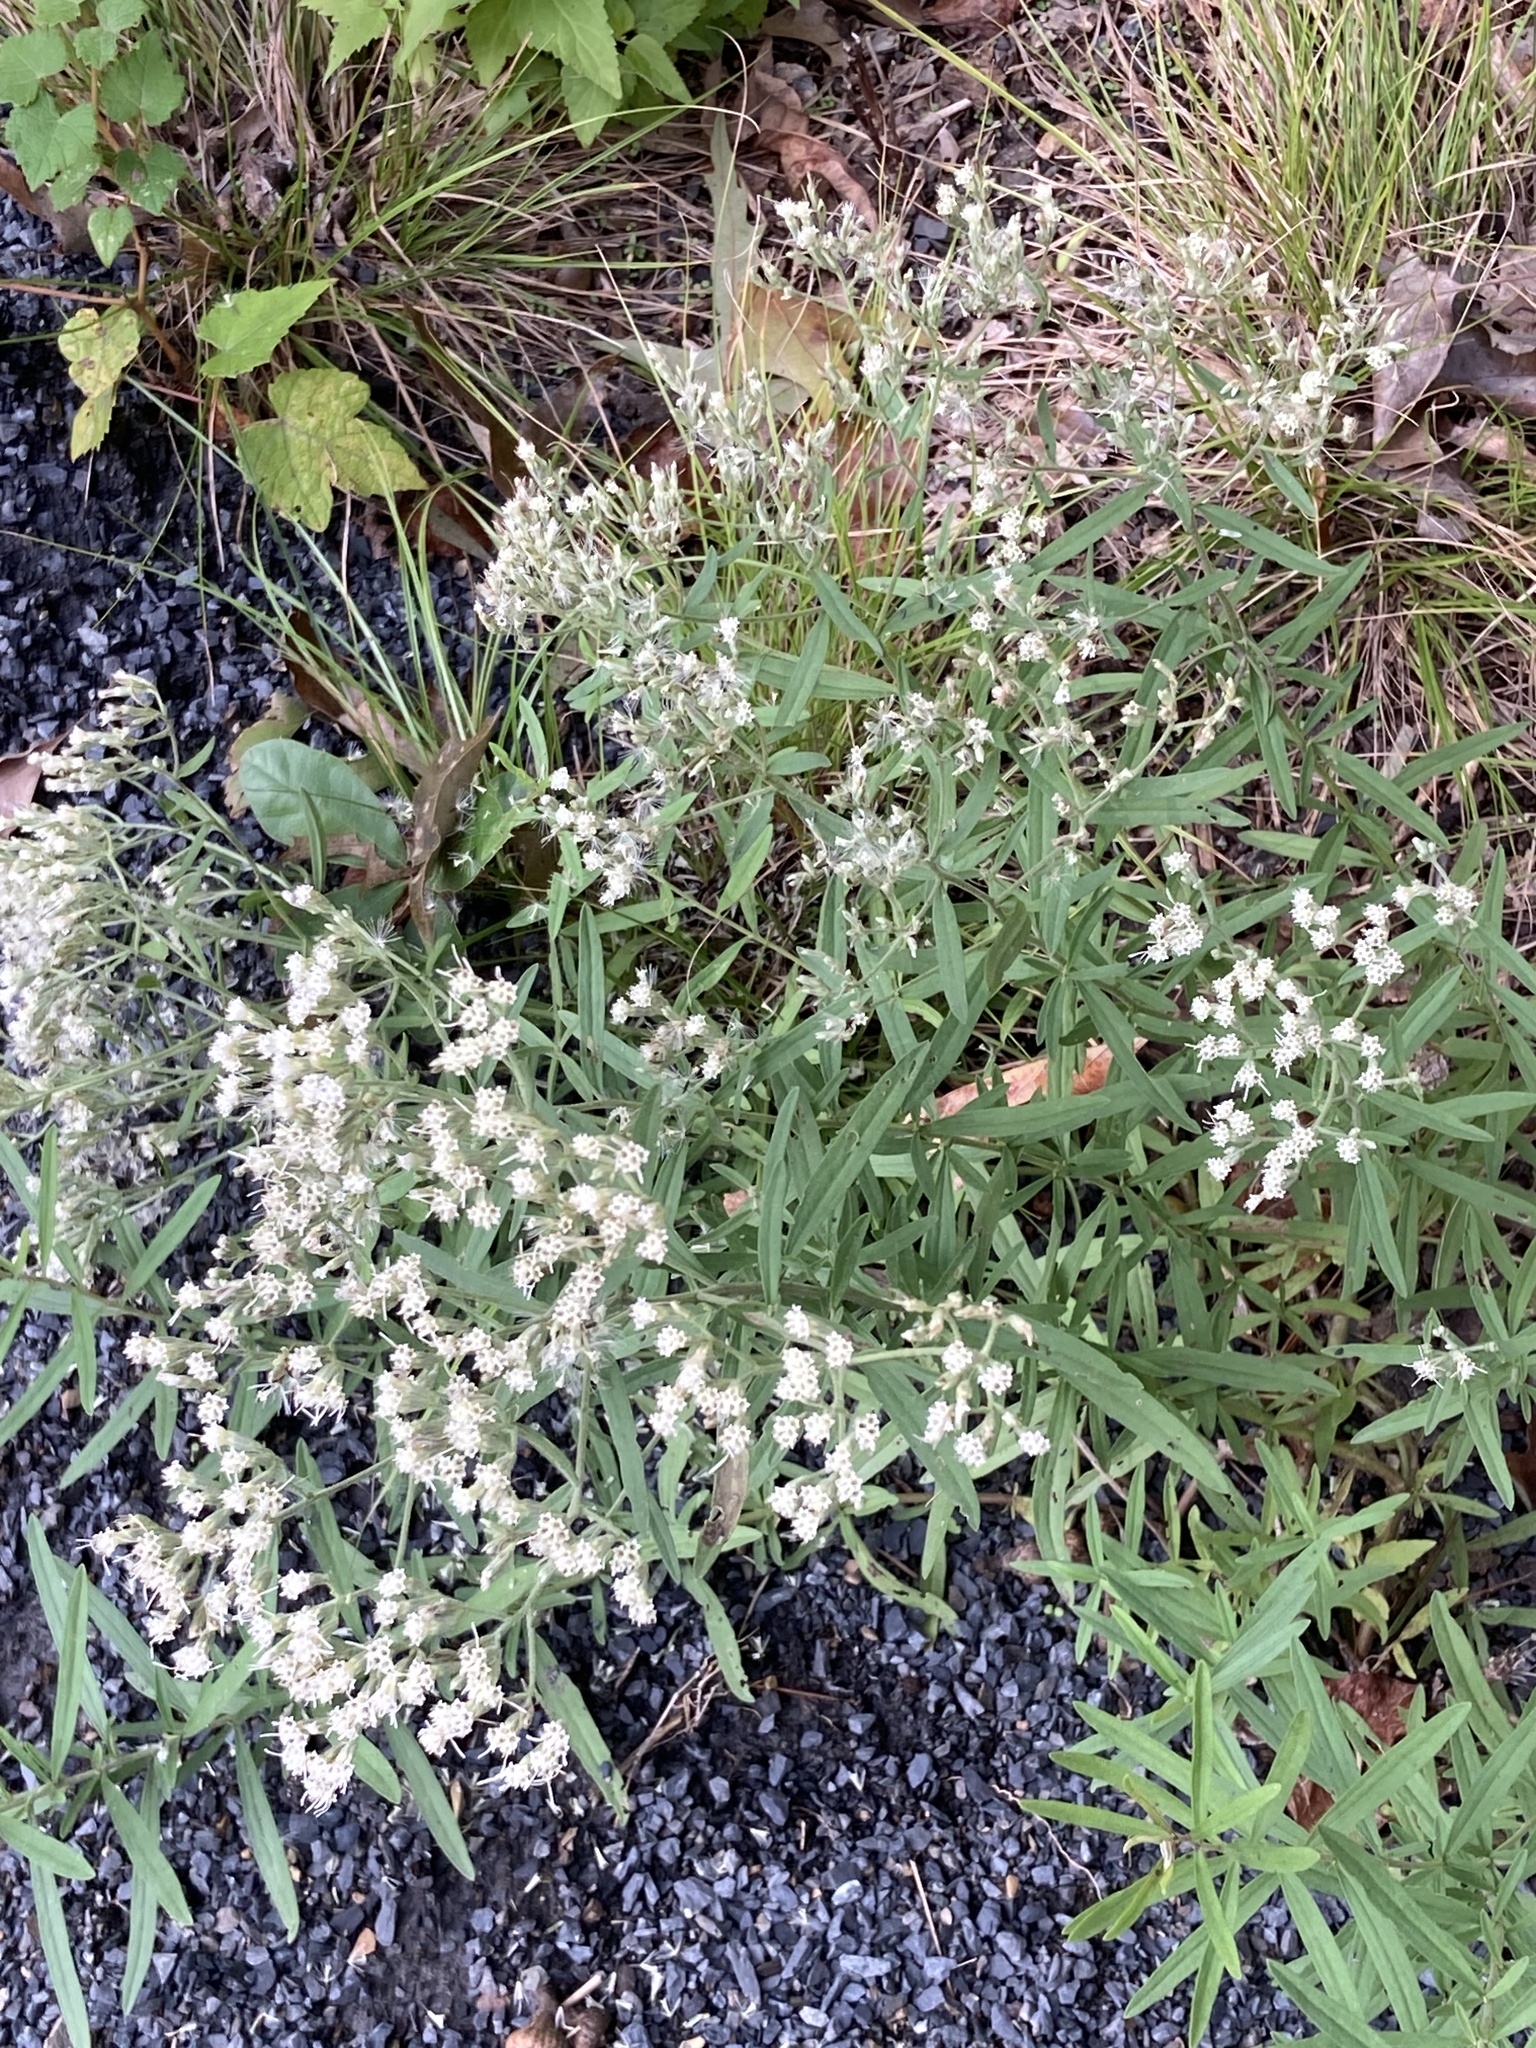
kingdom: Plantae
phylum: Tracheophyta
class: Magnoliopsida
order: Asterales
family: Asteraceae
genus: Eupatorium
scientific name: Eupatorium torreyanum
